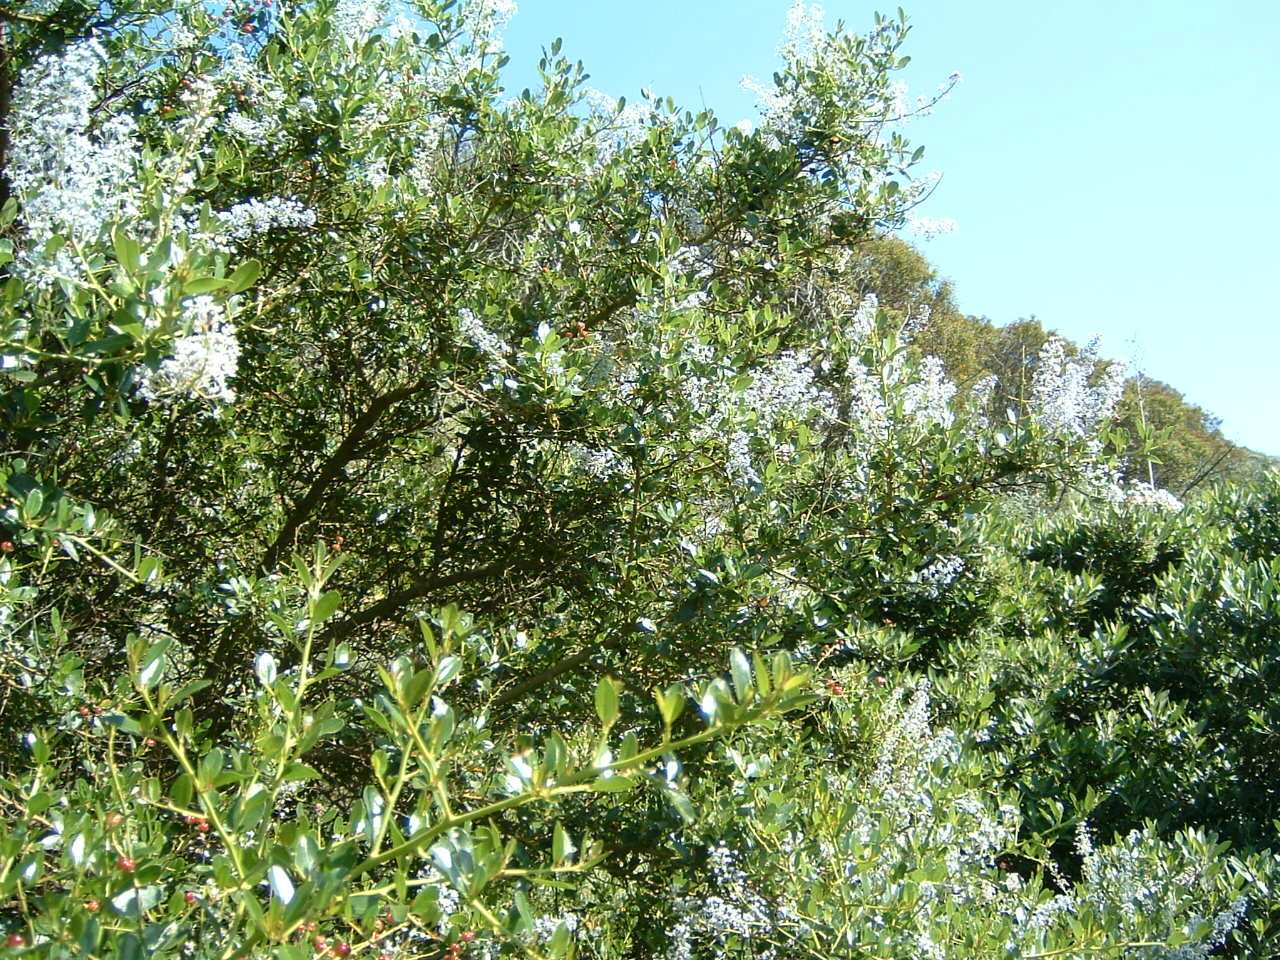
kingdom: Plantae
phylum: Tracheophyta
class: Magnoliopsida
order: Rosales
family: Rhamnaceae
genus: Ceanothus
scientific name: Ceanothus spinosus
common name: Greenbark whitethorn
